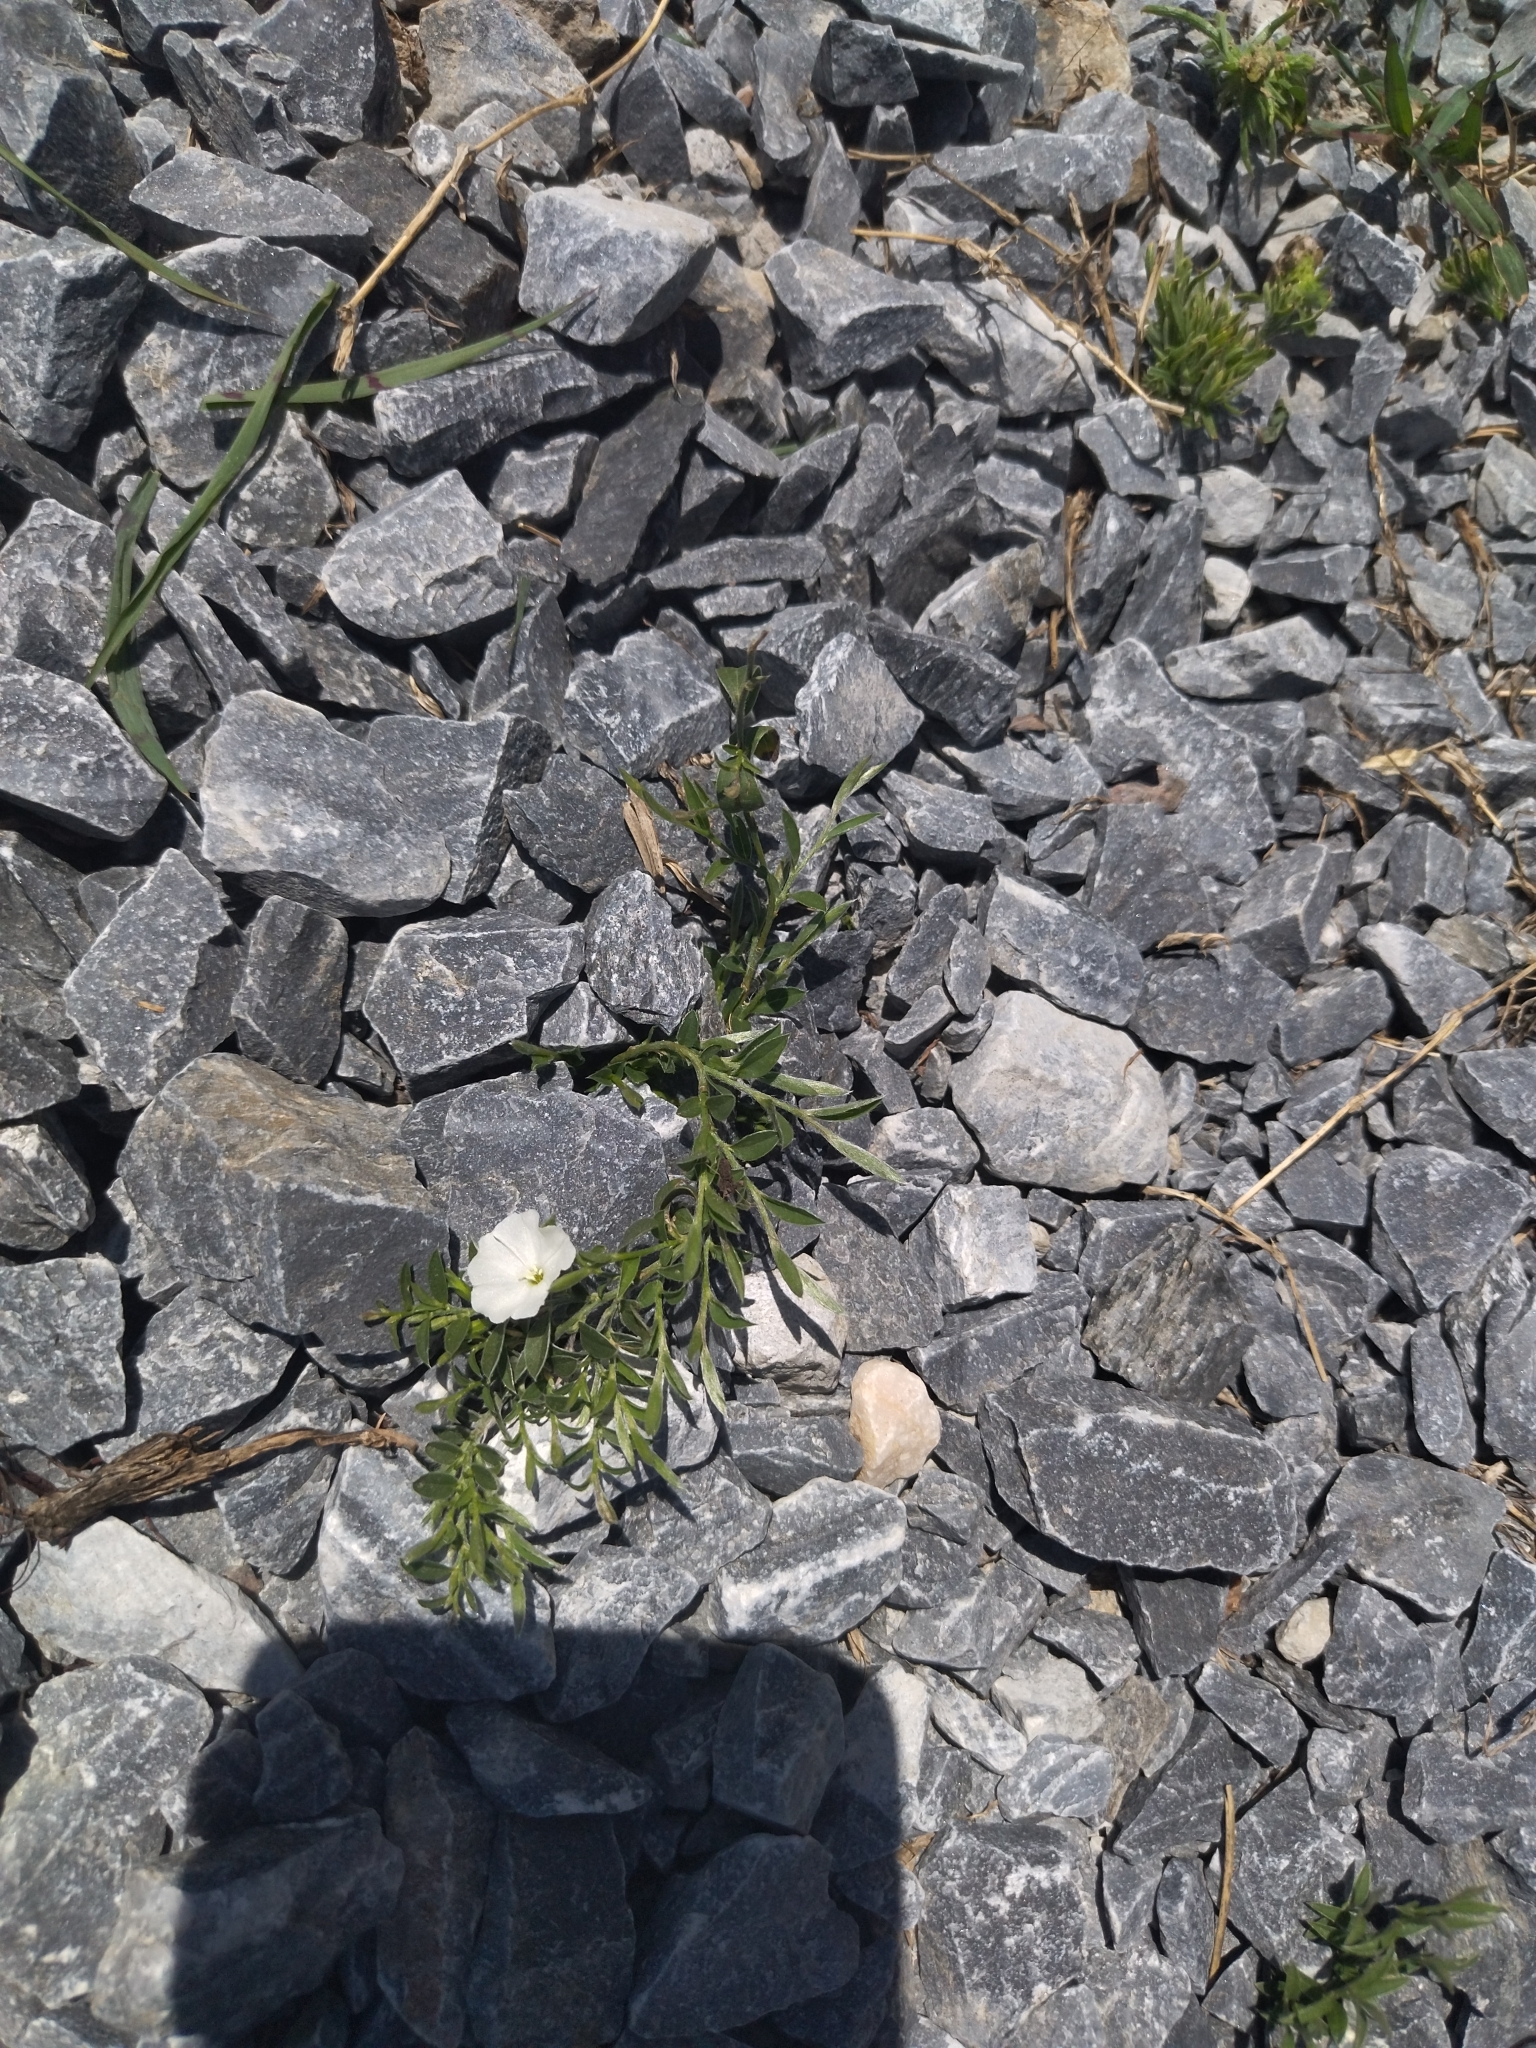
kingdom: Plantae
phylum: Tracheophyta
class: Magnoliopsida
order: Solanales
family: Convolvulaceae
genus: Evolvulus
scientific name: Evolvulus sericeus
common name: Blue dots
